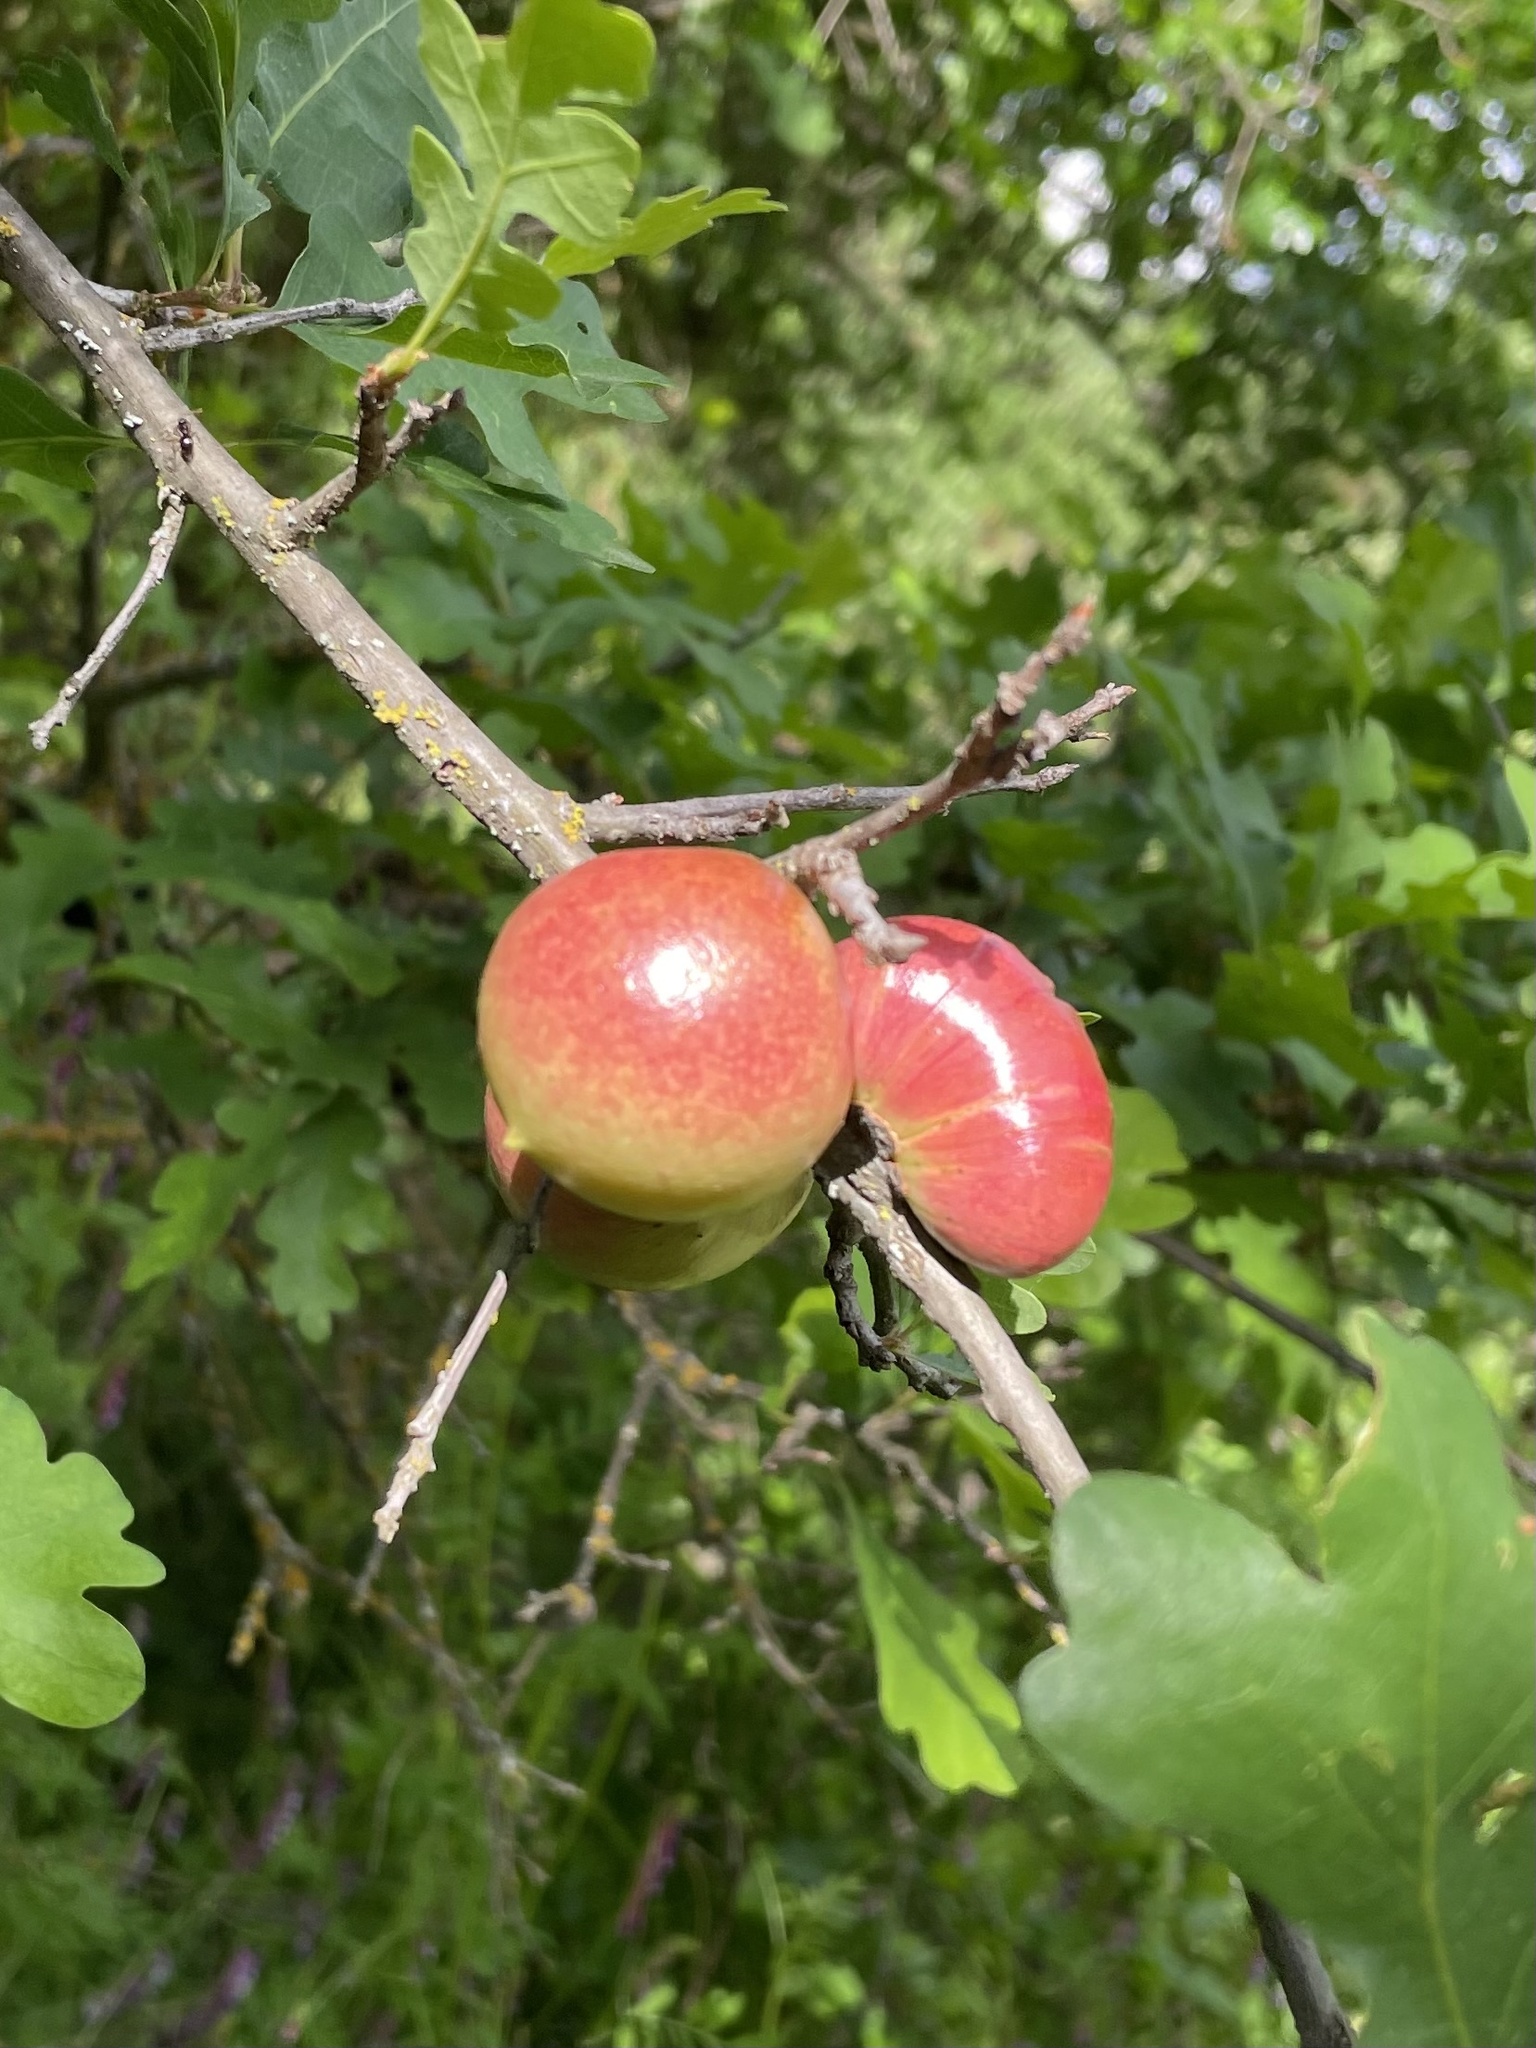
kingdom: Animalia
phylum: Arthropoda
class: Insecta
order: Hymenoptera
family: Cynipidae
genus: Andricus
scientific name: Andricus quercuscalifornicus
